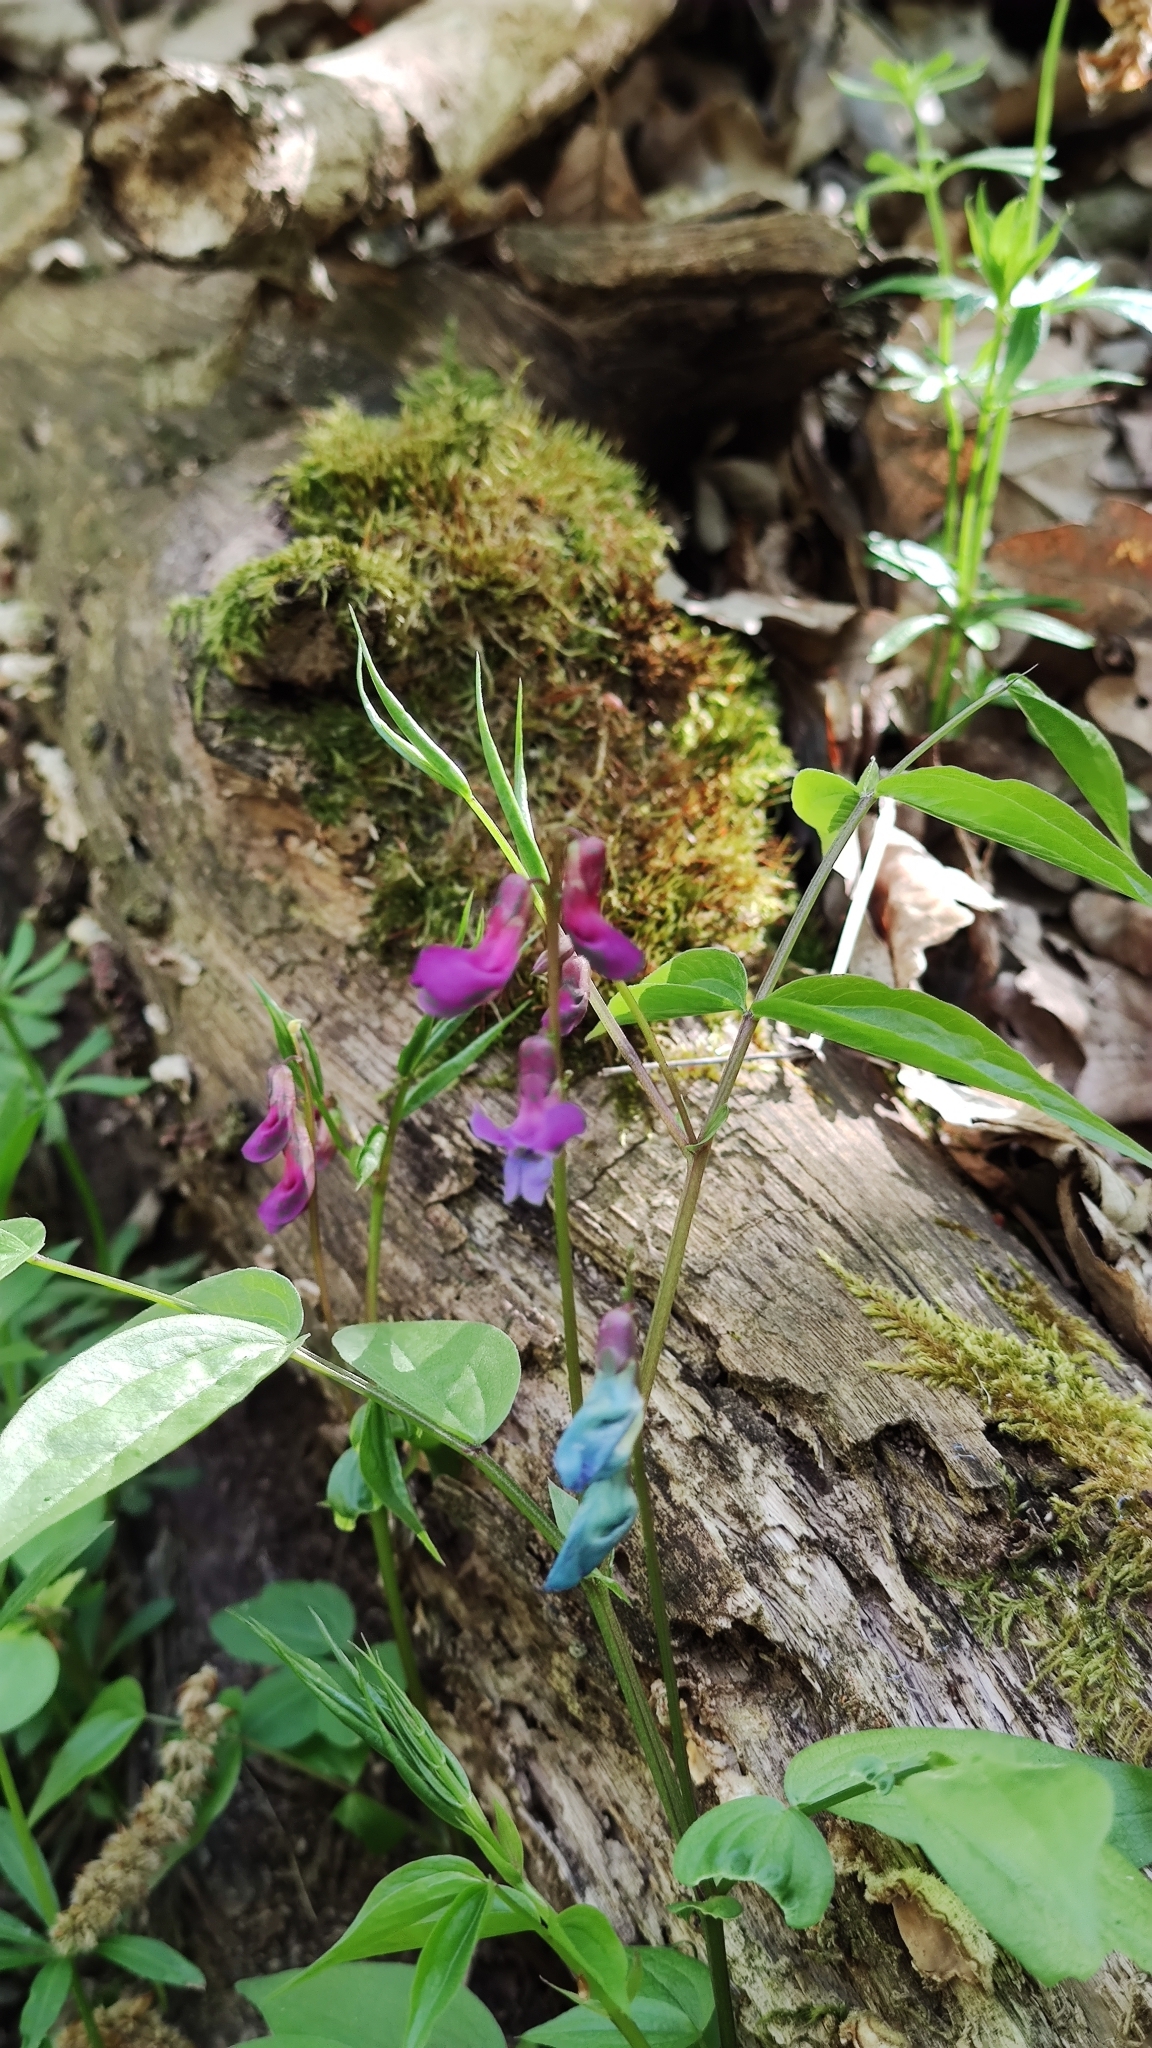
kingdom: Plantae
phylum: Tracheophyta
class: Magnoliopsida
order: Fabales
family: Fabaceae
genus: Lathyrus
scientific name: Lathyrus vernus
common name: Spring pea
